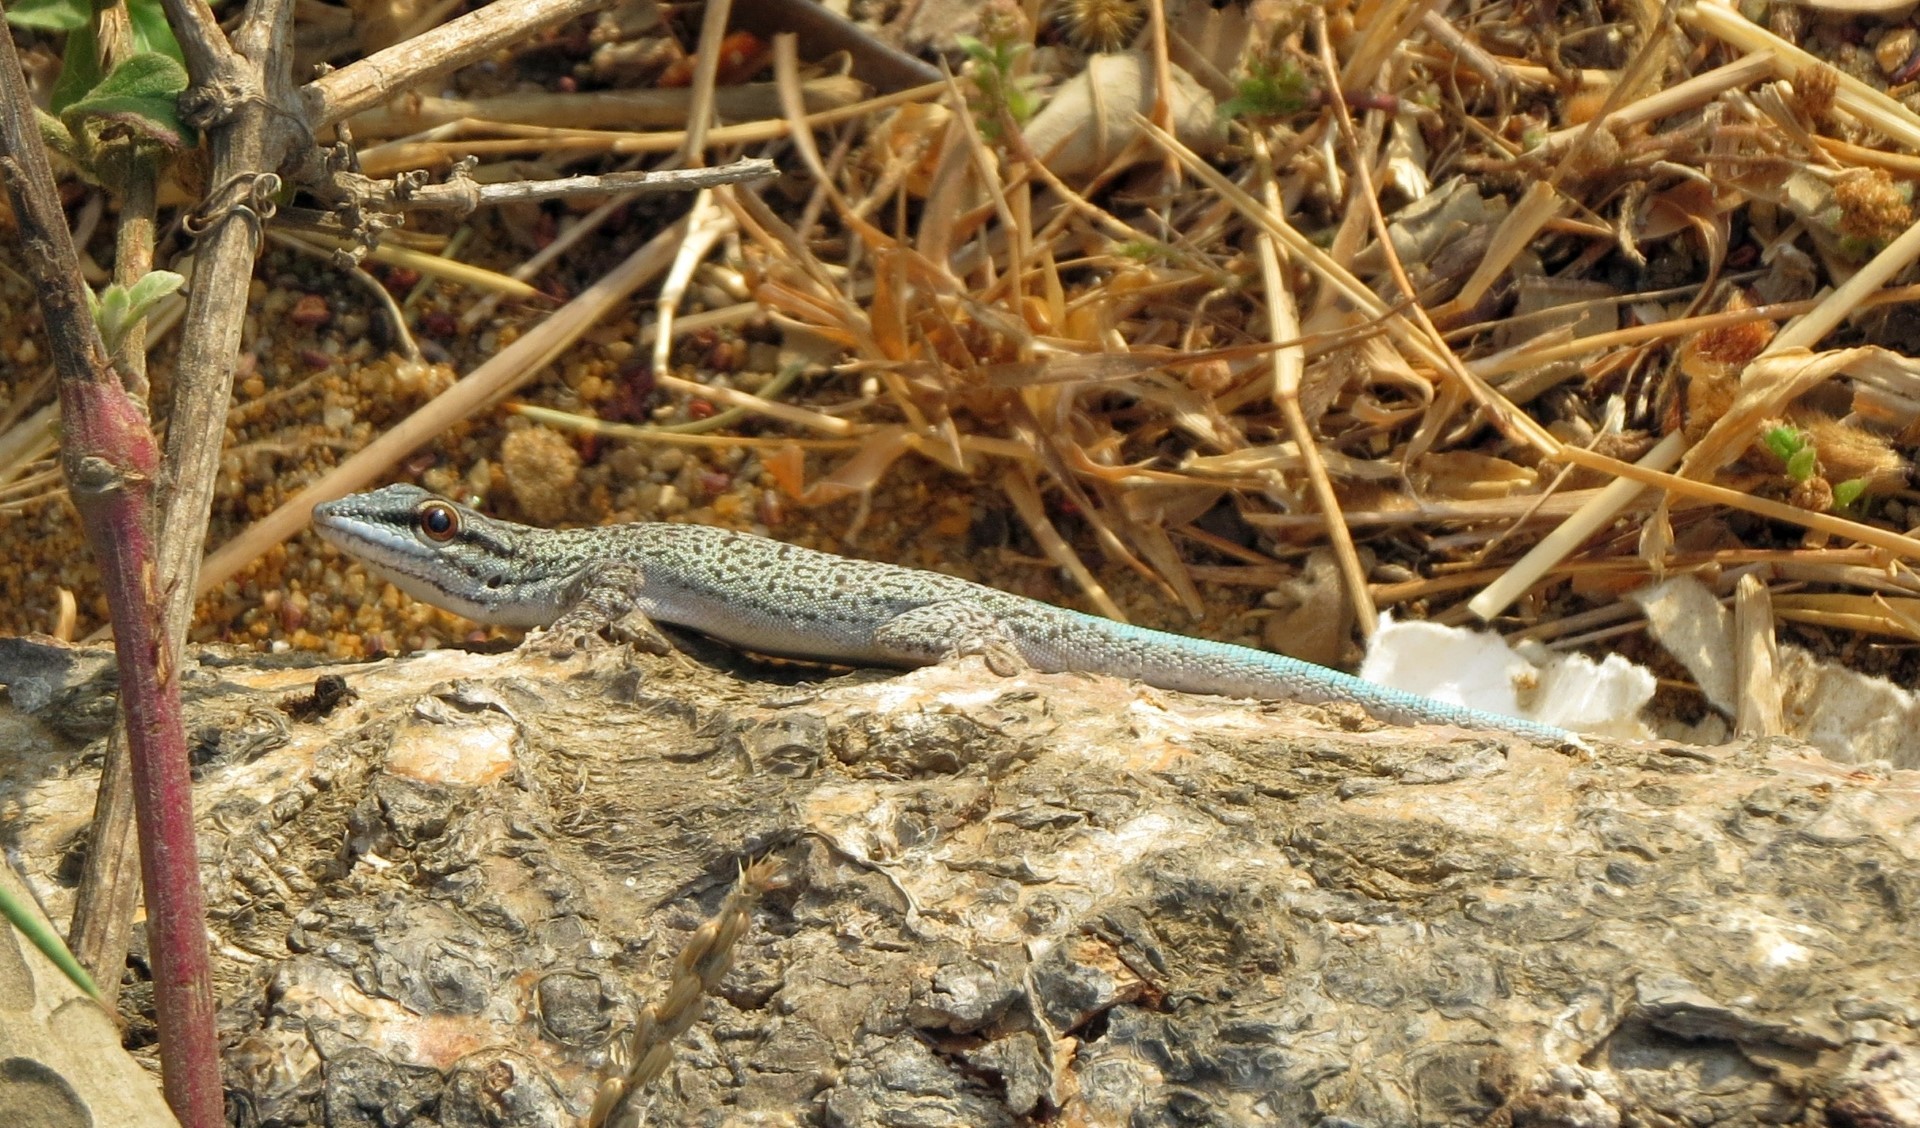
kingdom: Animalia
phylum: Chordata
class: Squamata
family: Gekkonidae
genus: Phelsuma
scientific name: Phelsuma mutabilis
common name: Thick tail gecko
